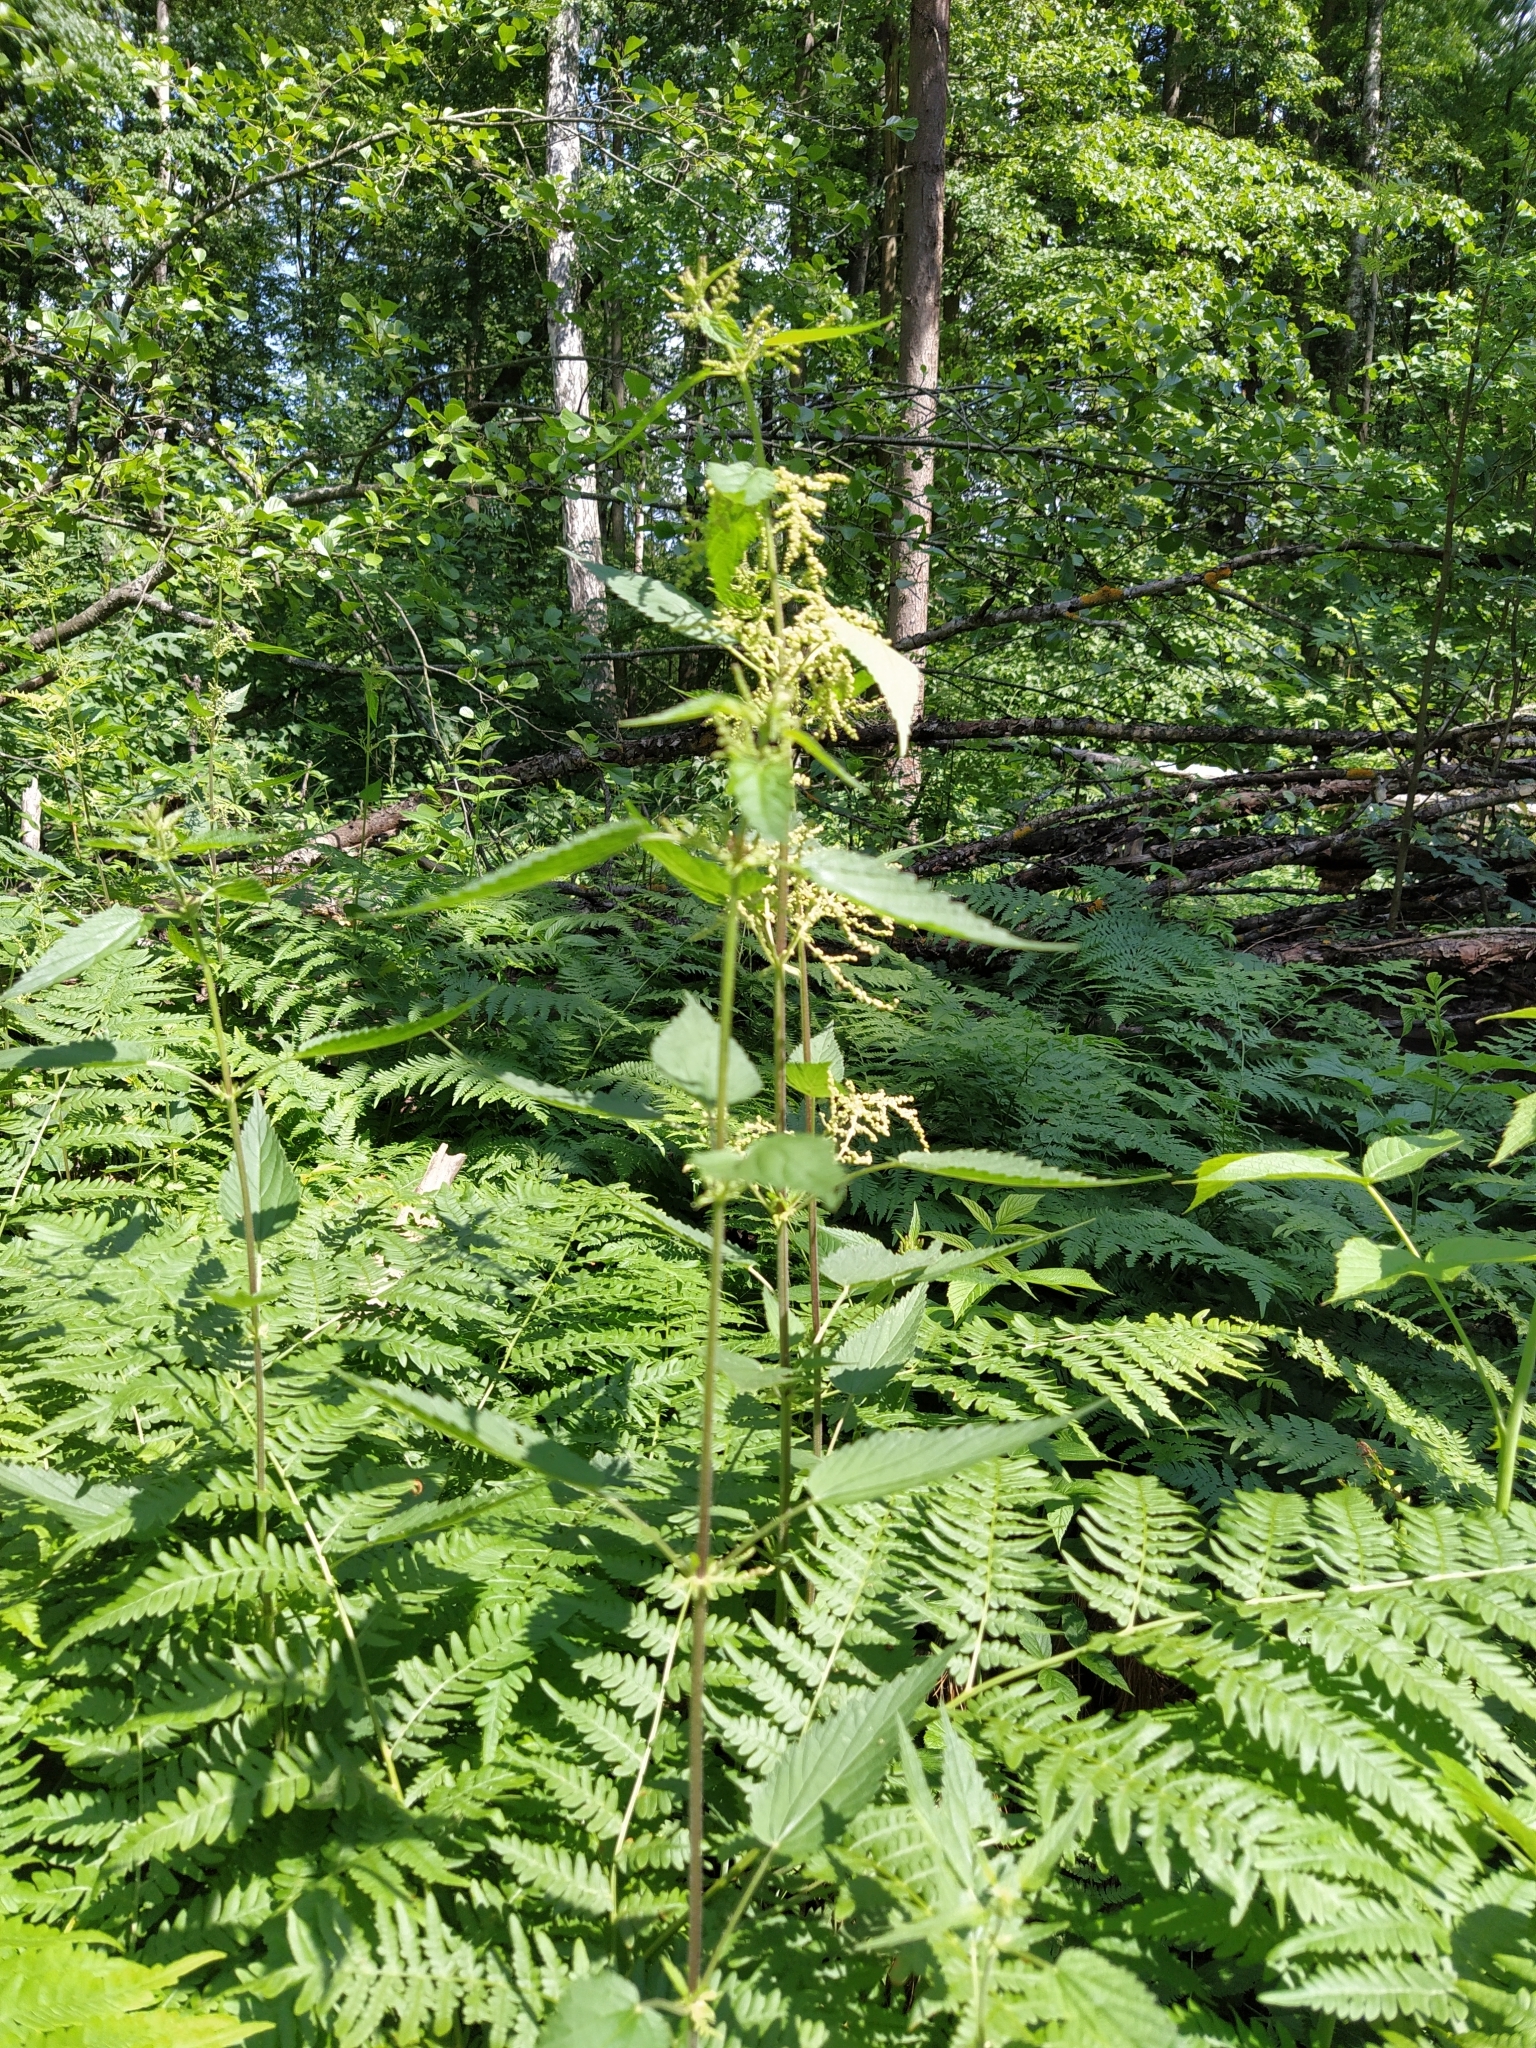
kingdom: Plantae
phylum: Tracheophyta
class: Magnoliopsida
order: Rosales
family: Urticaceae
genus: Urtica
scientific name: Urtica dioica
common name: Common nettle
